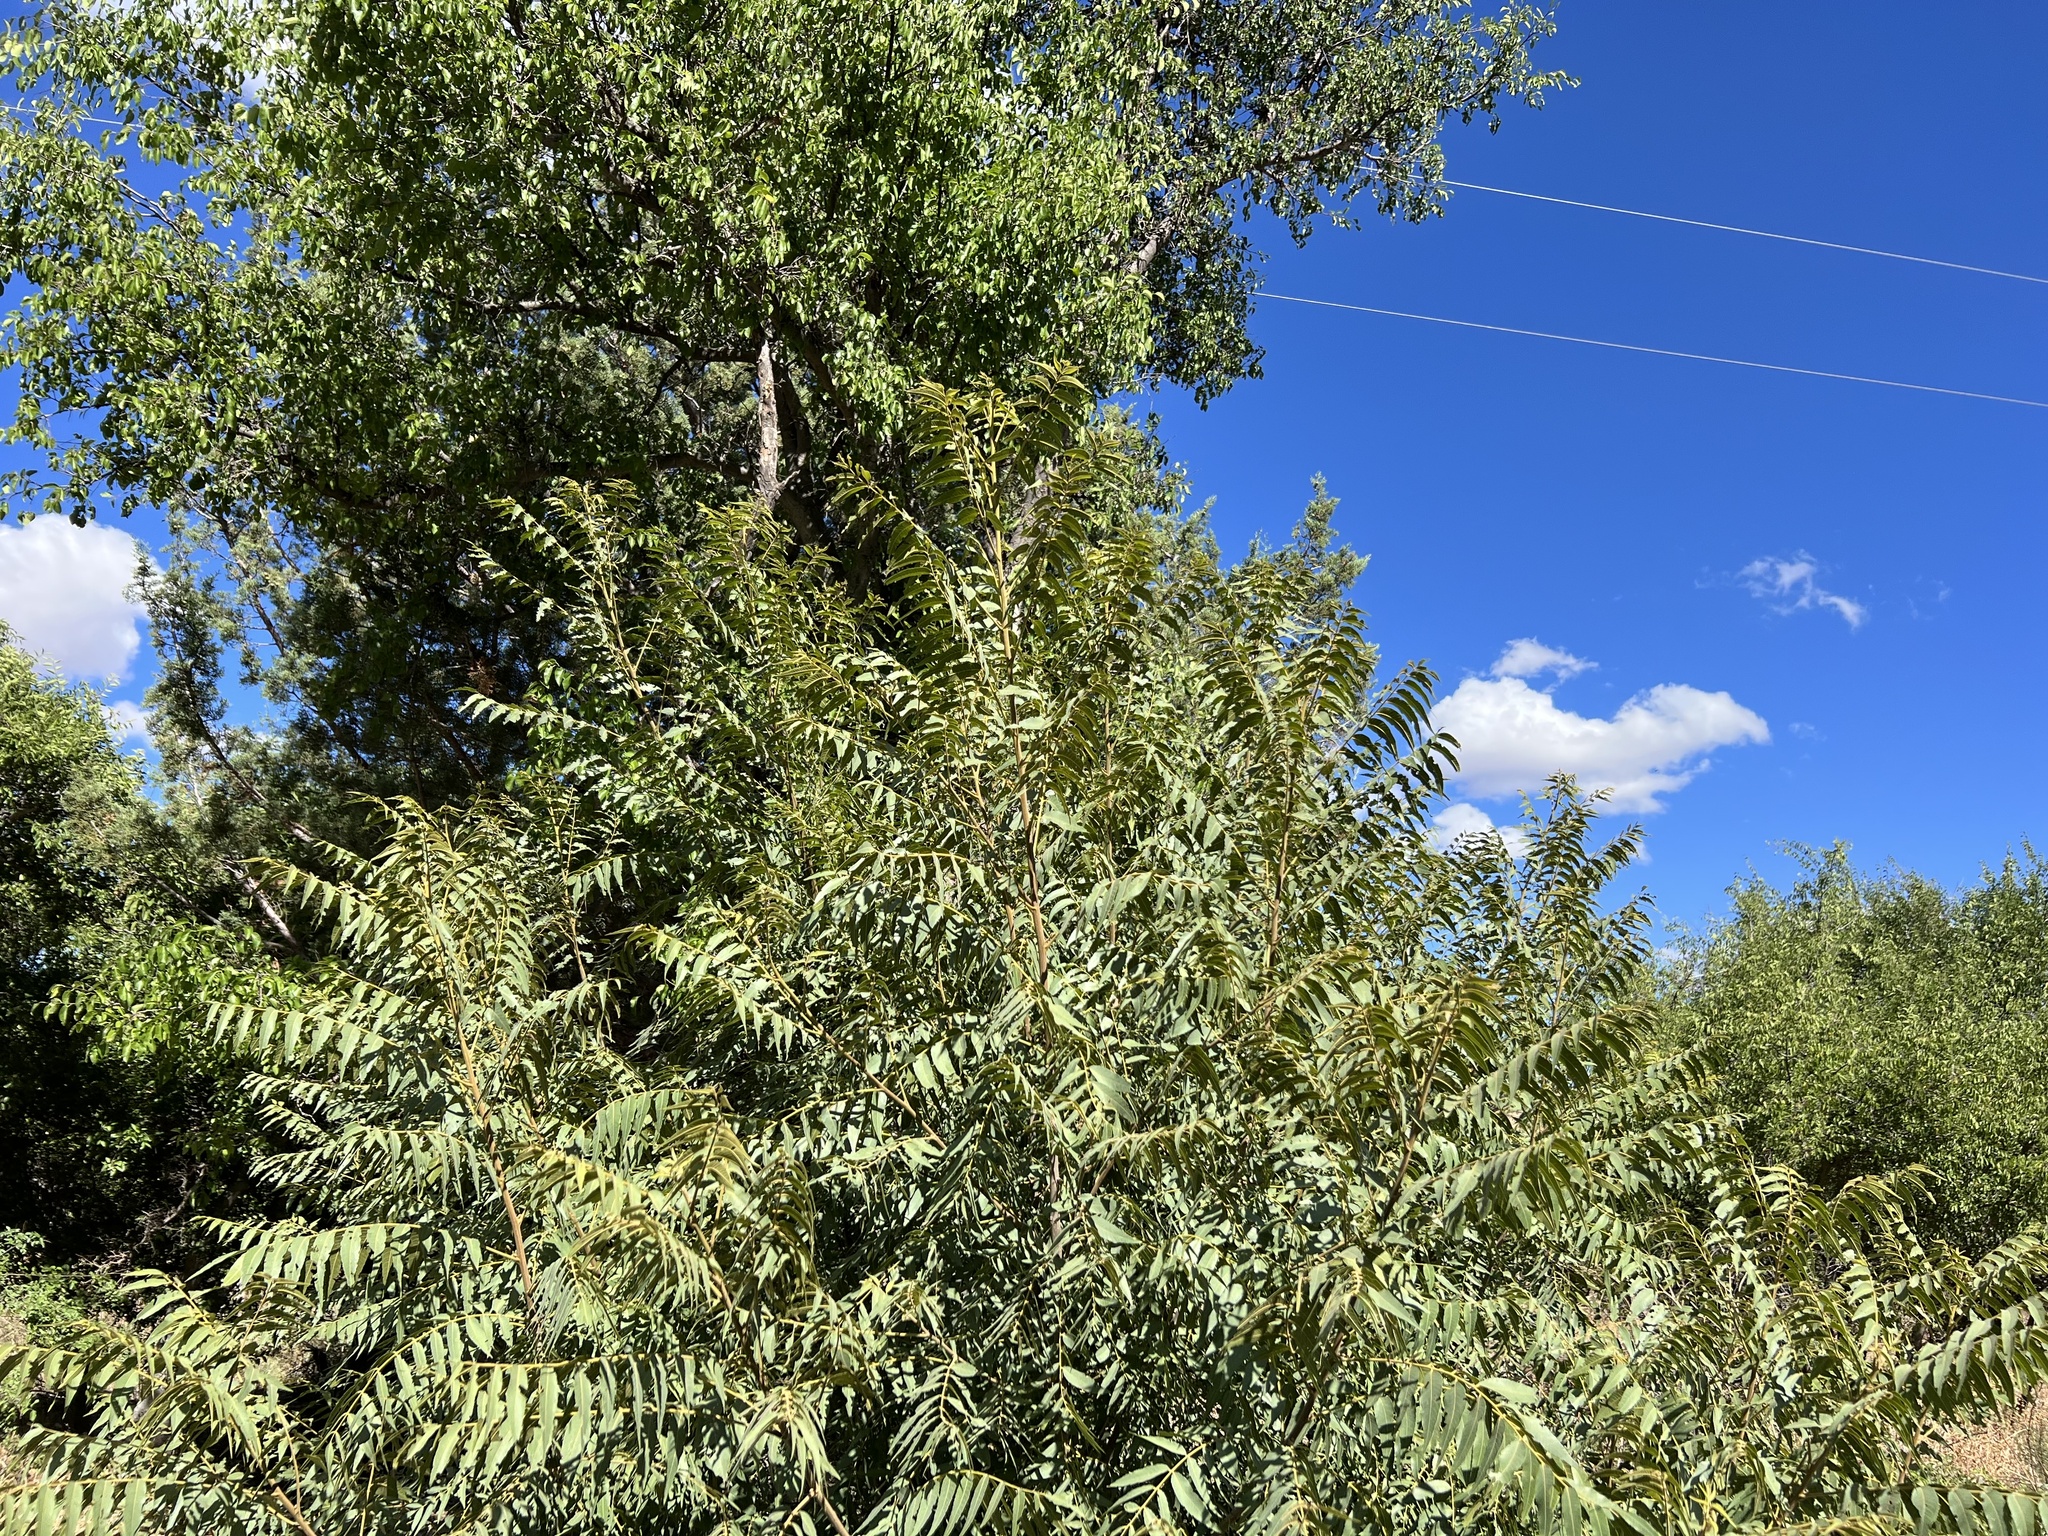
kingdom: Plantae
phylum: Tracheophyta
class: Magnoliopsida
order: Fagales
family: Juglandaceae
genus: Juglans
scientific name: Juglans major
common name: Arizona walnut
